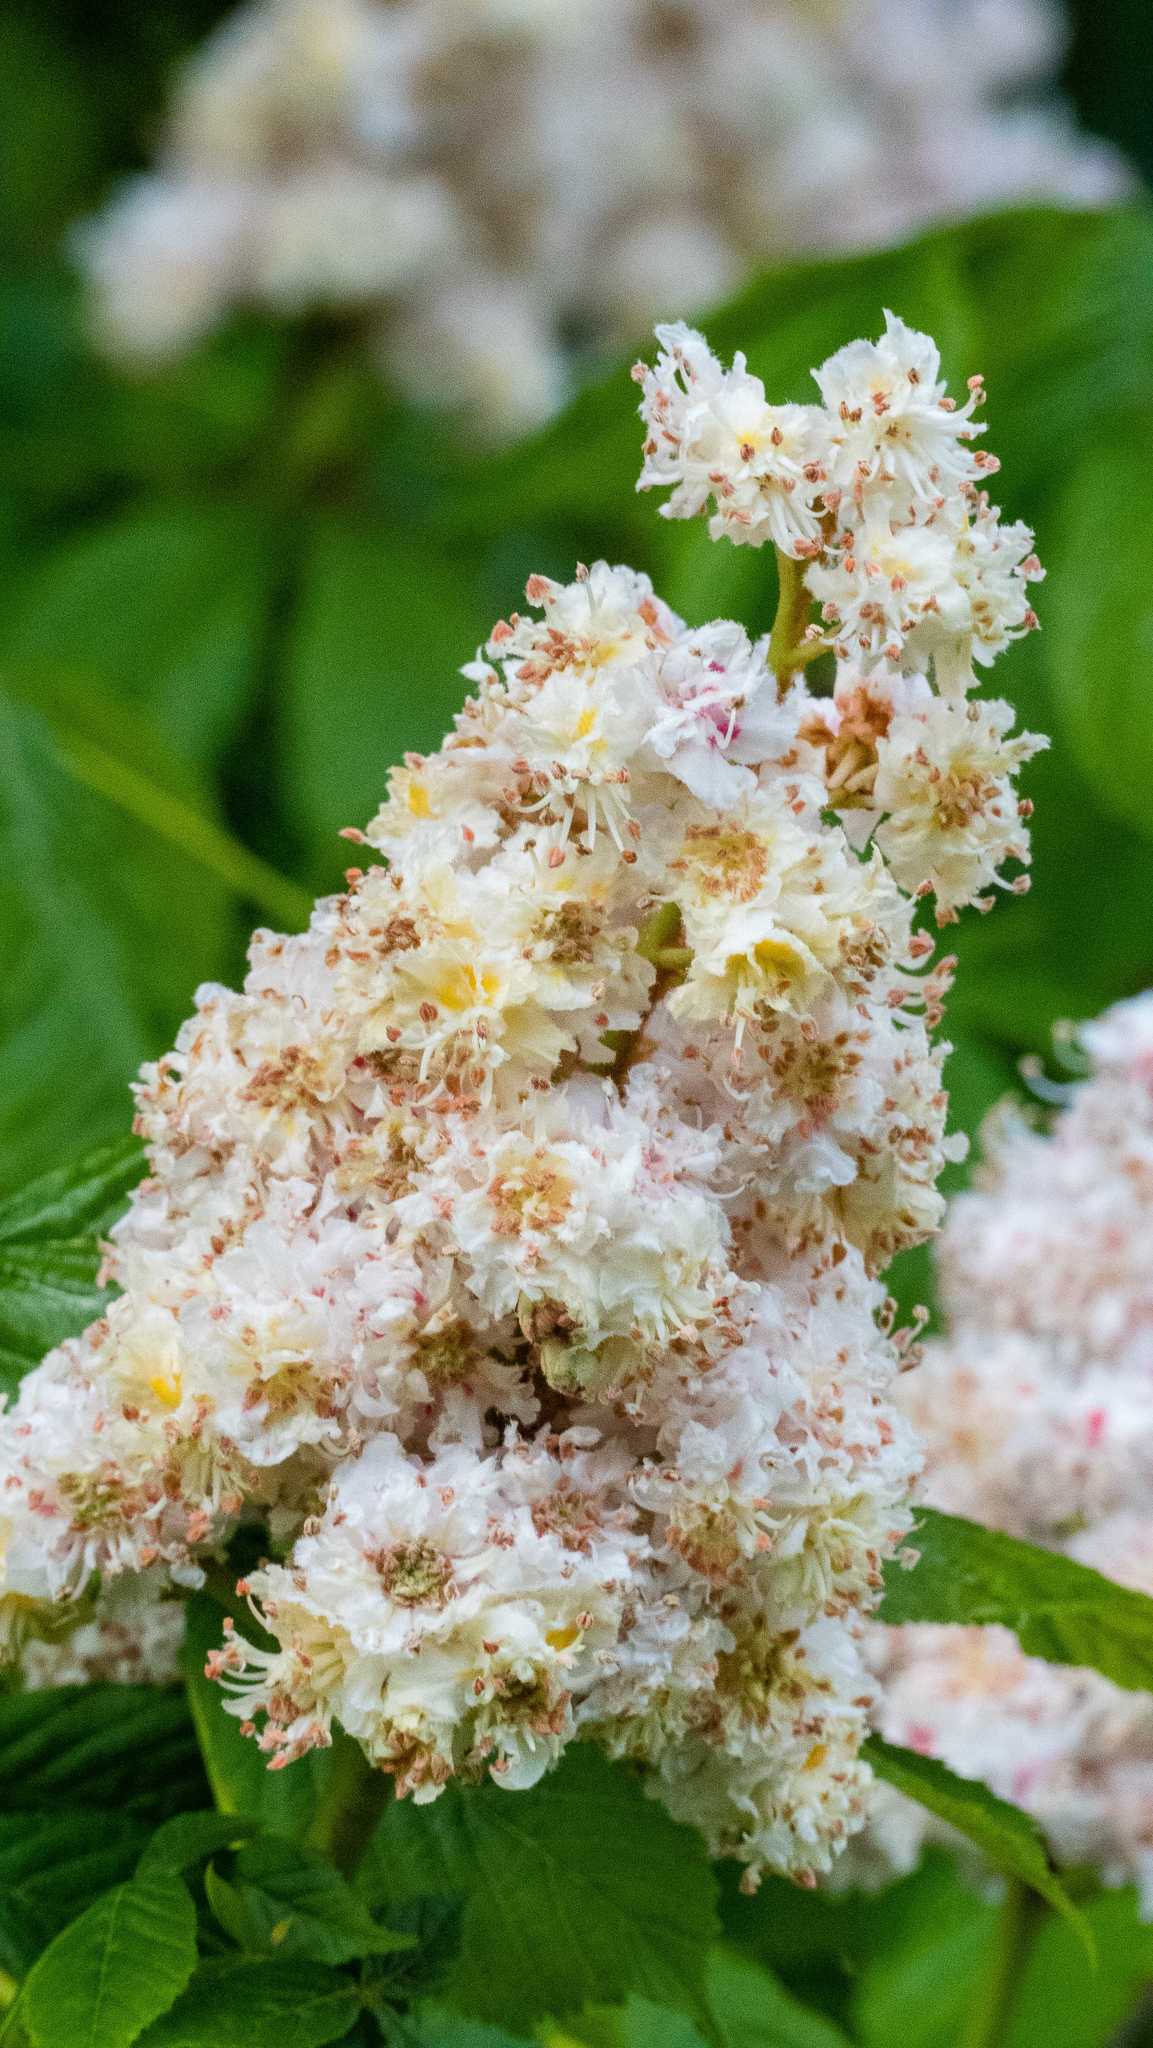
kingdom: Plantae
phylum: Tracheophyta
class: Magnoliopsida
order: Sapindales
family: Sapindaceae
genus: Aesculus
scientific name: Aesculus hippocastanum
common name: Horse-chestnut
